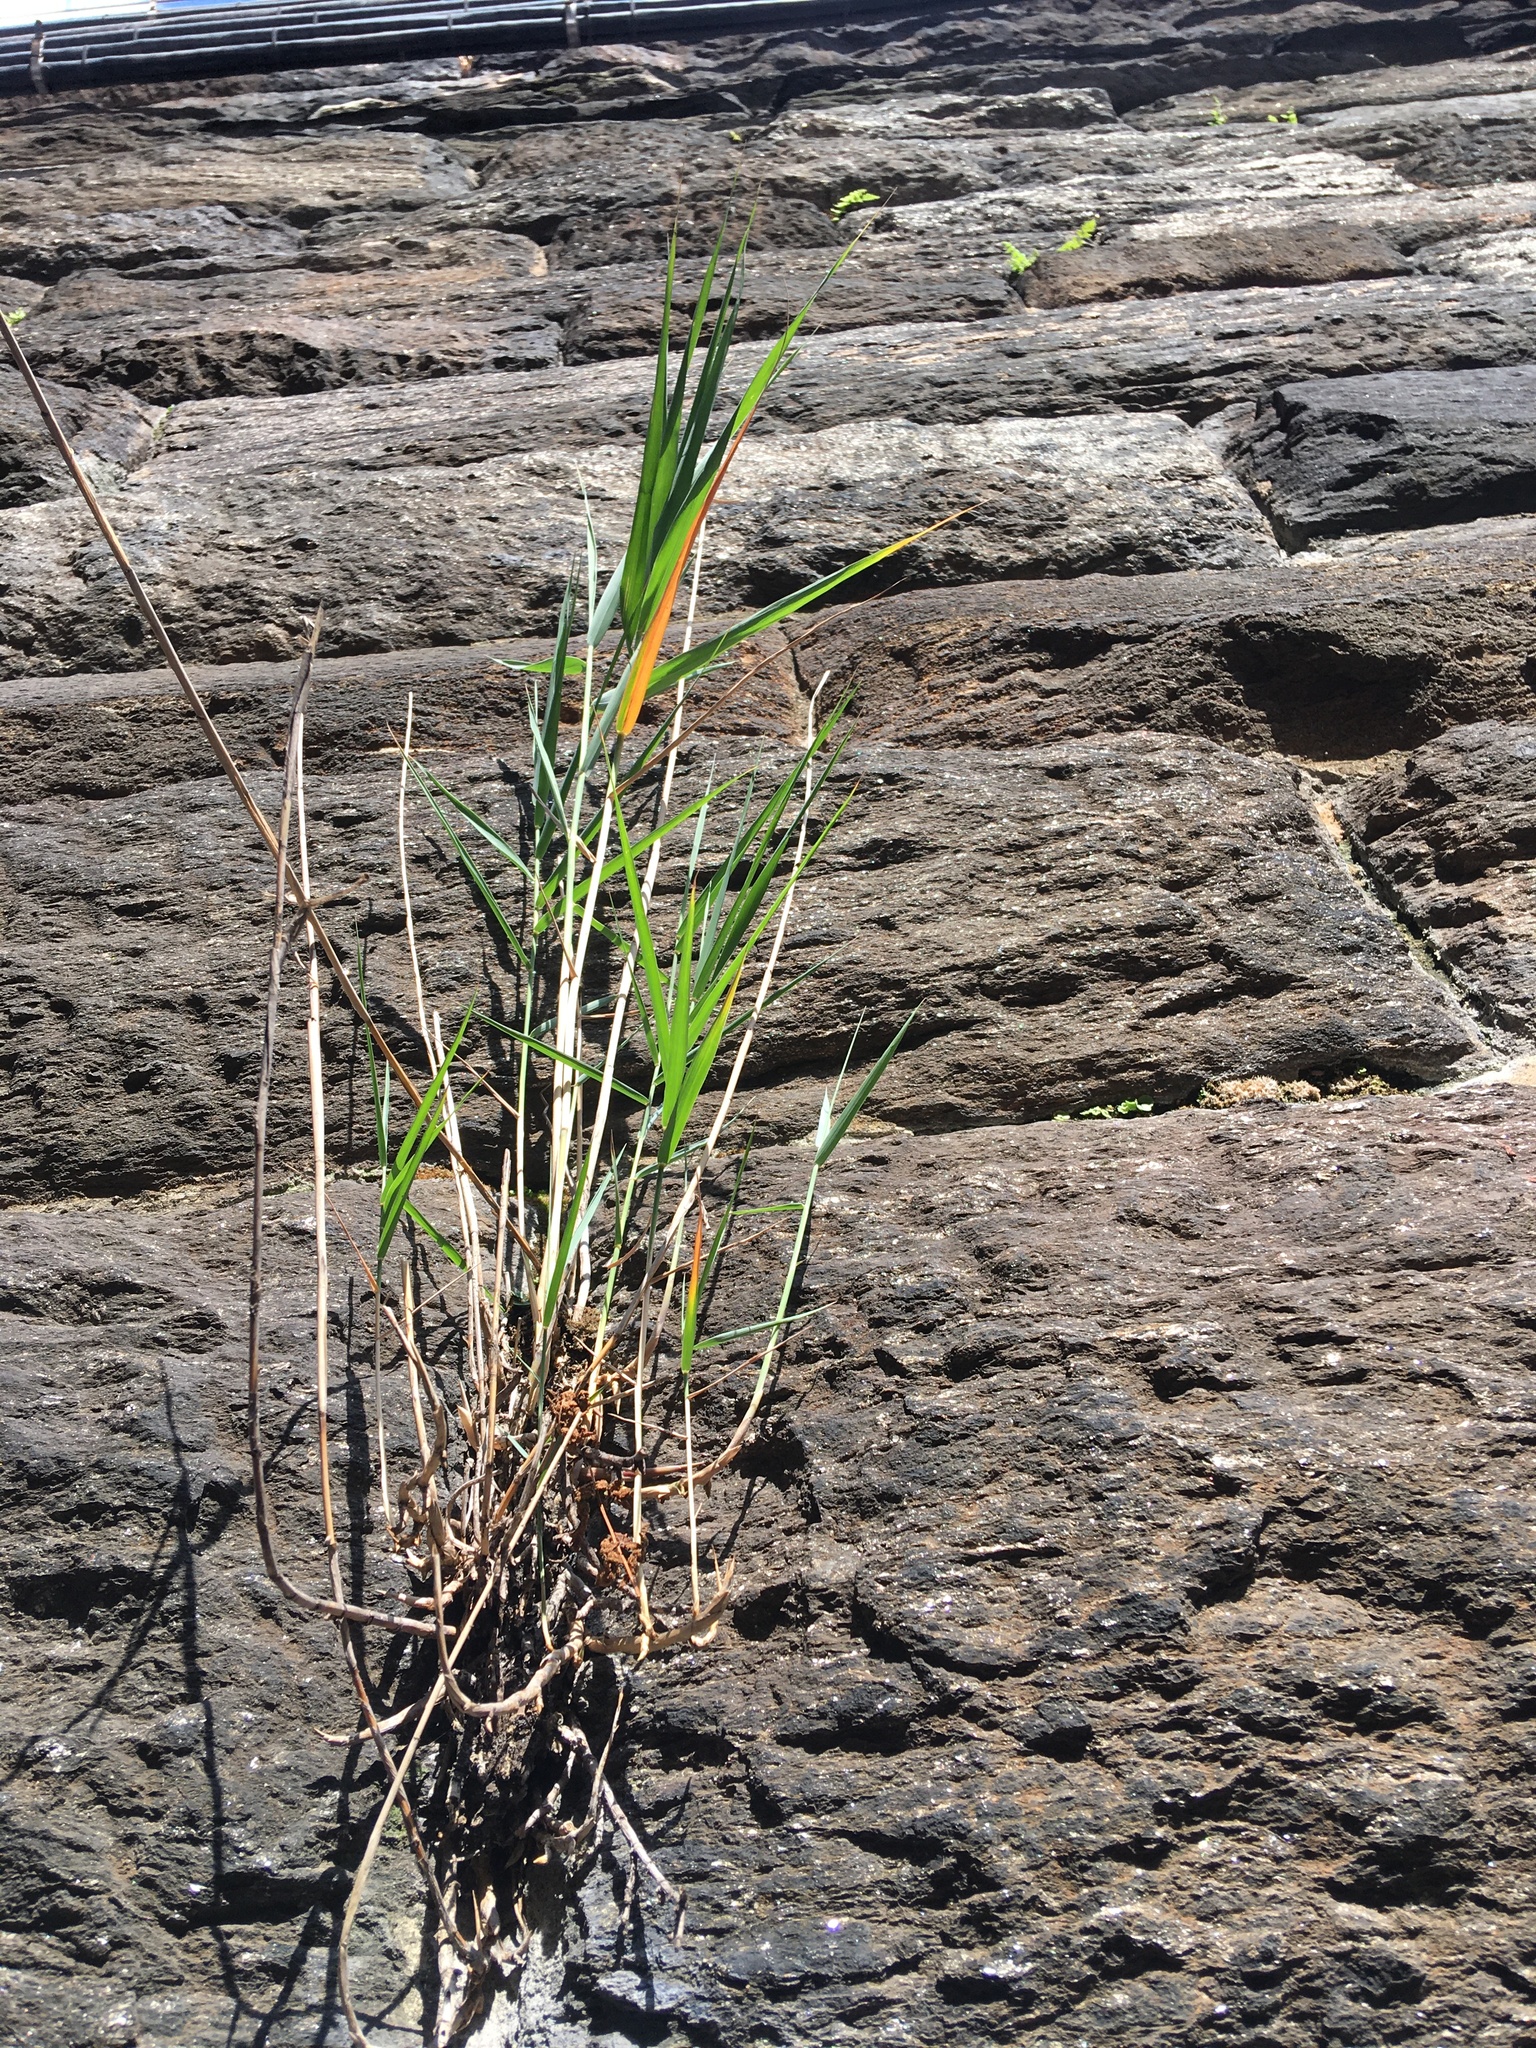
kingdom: Plantae
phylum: Tracheophyta
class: Liliopsida
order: Poales
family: Poaceae
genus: Phragmites
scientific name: Phragmites australis
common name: Common reed
